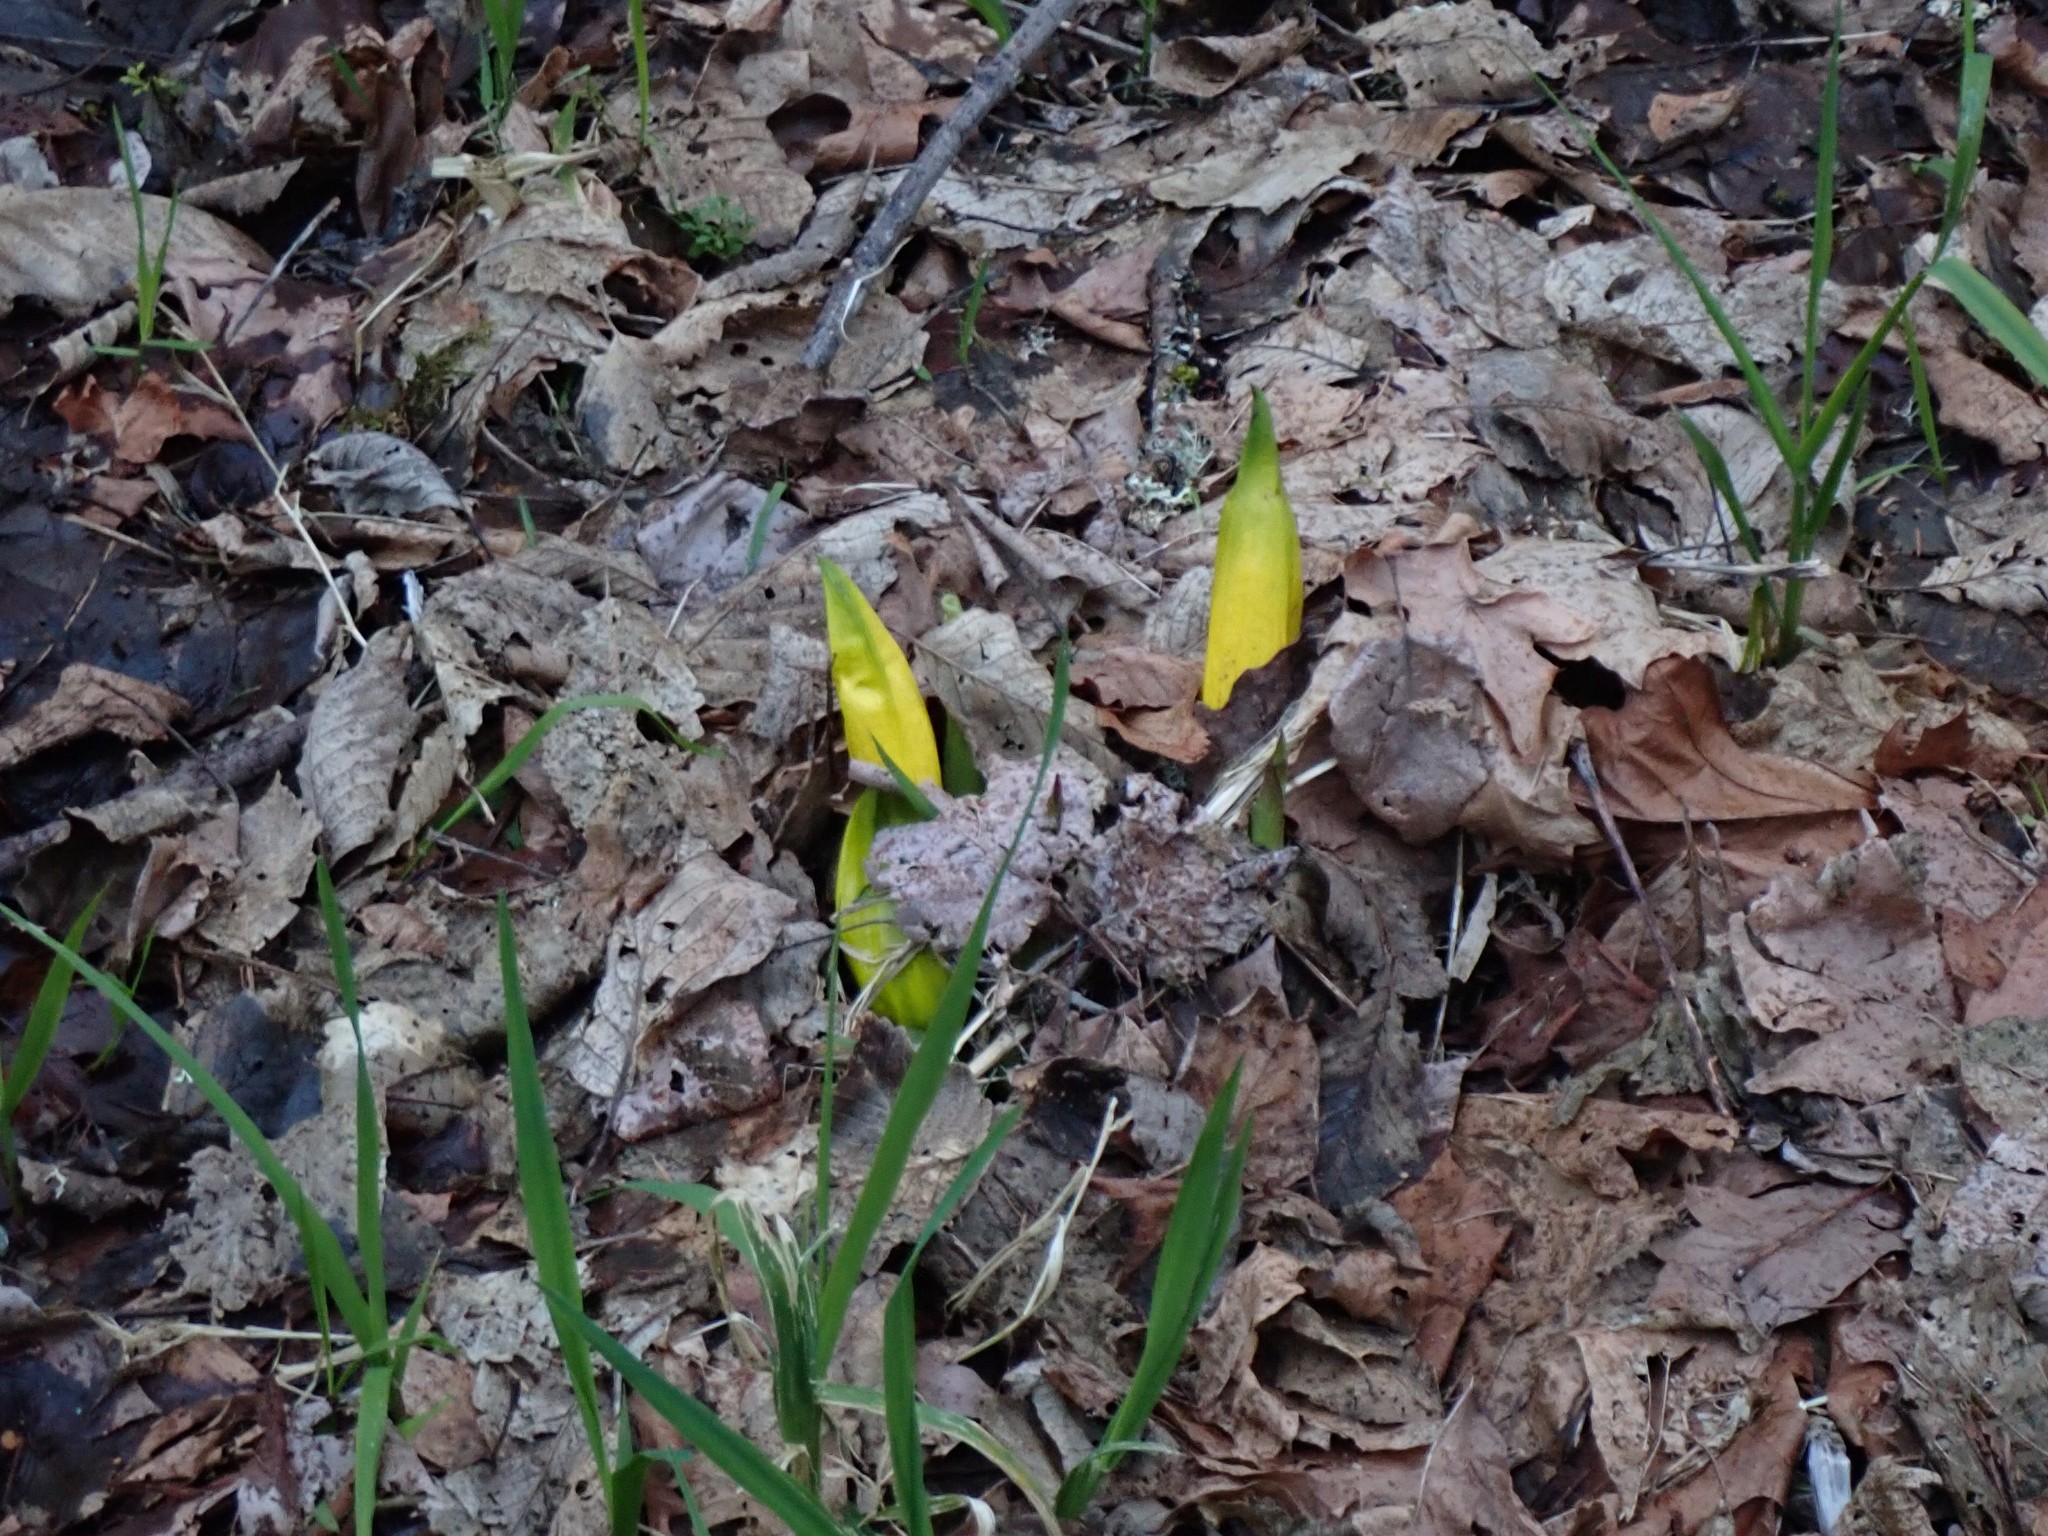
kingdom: Plantae
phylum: Tracheophyta
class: Liliopsida
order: Alismatales
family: Araceae
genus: Lysichiton
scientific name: Lysichiton americanus
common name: American skunk cabbage
